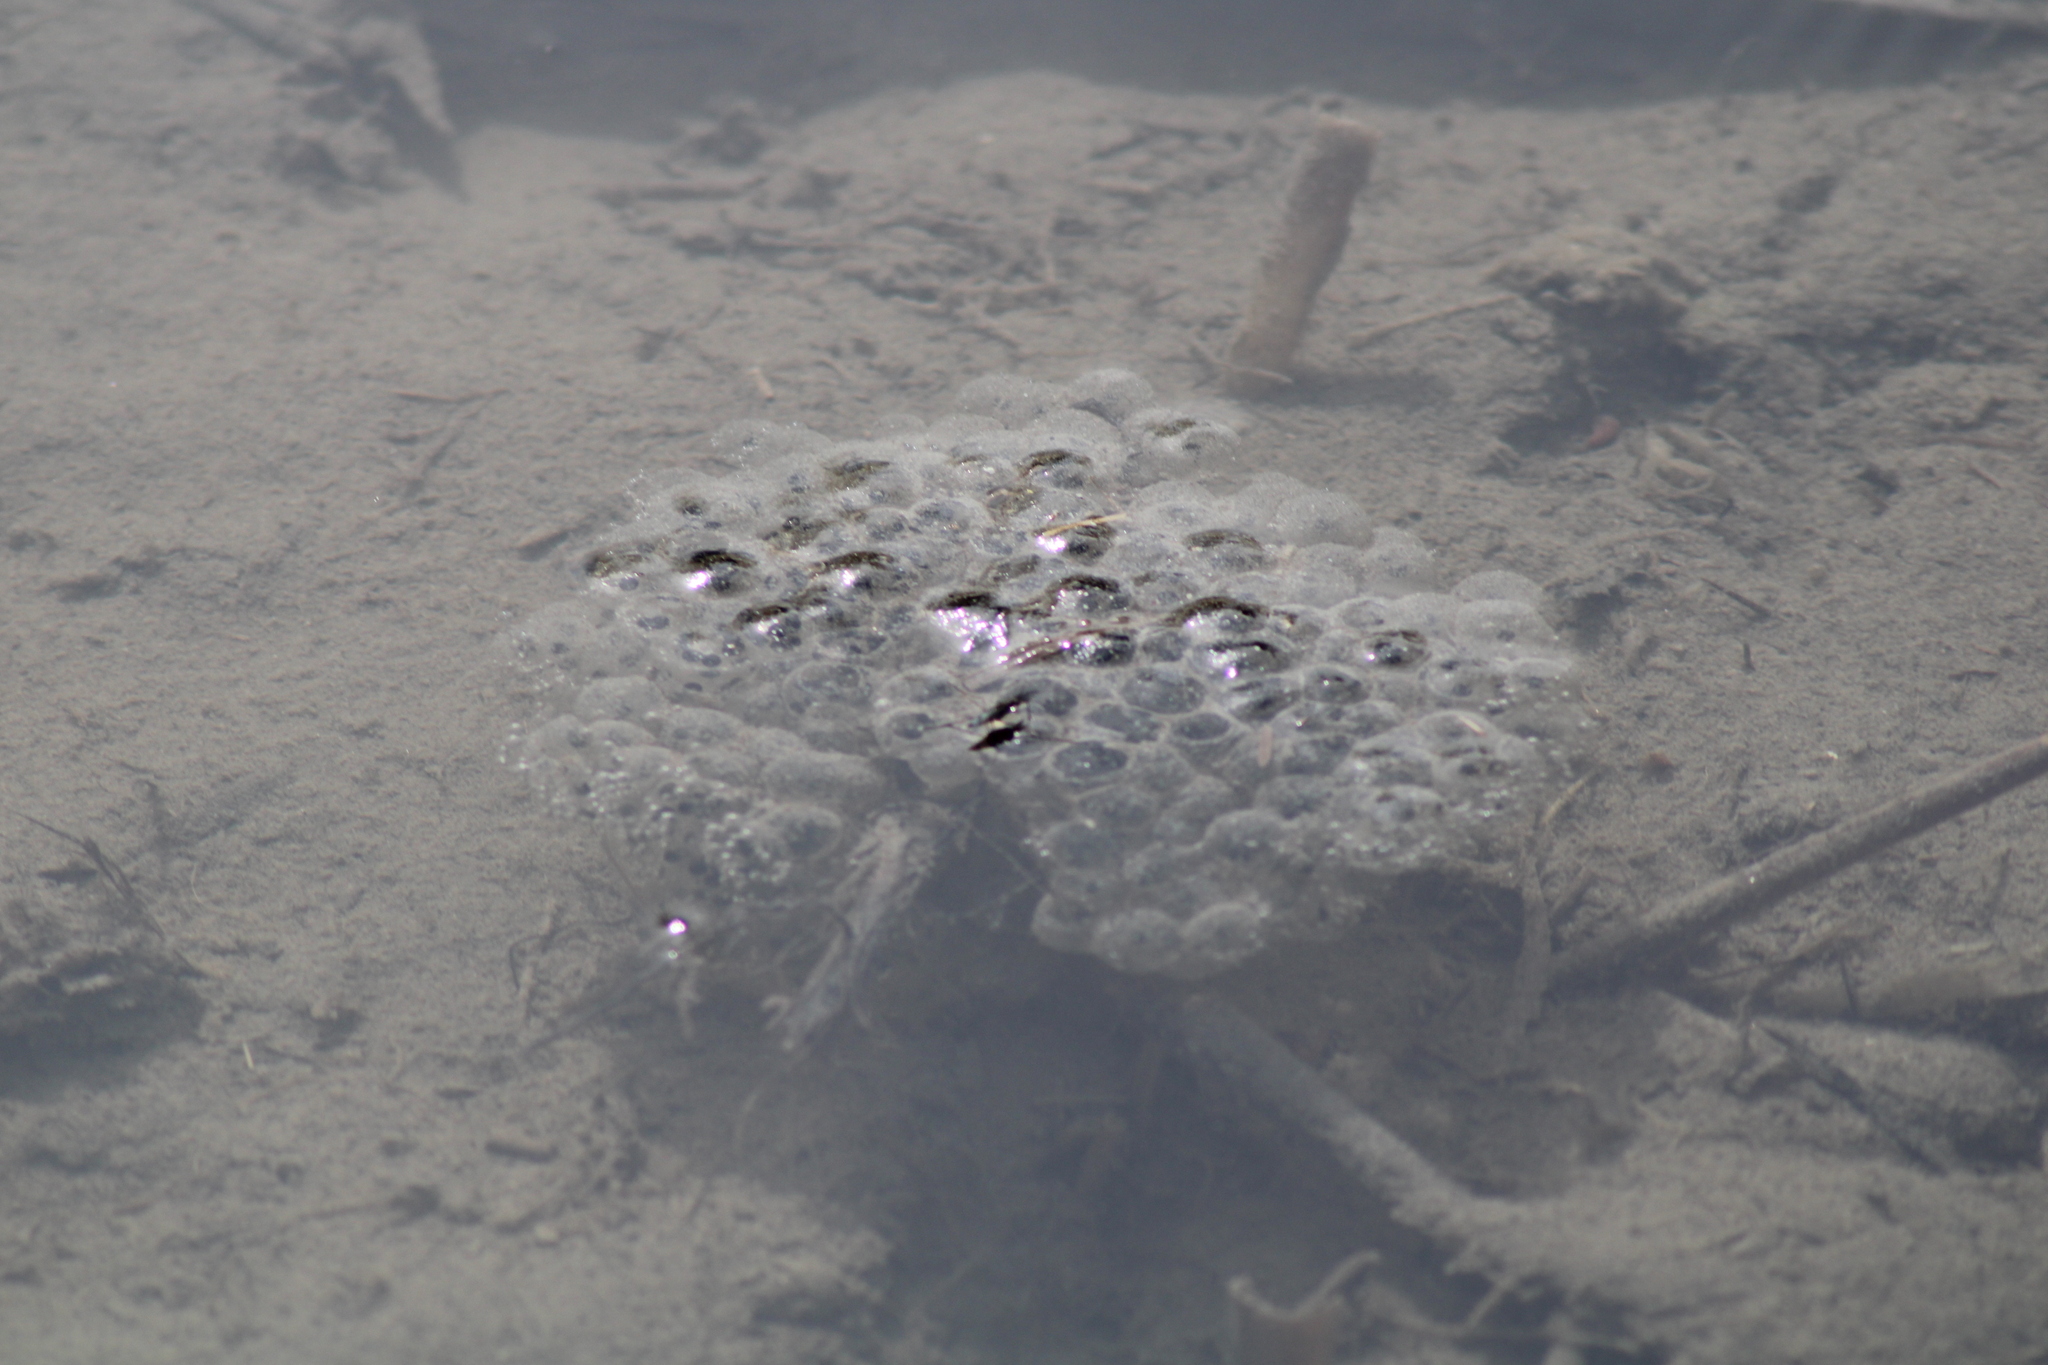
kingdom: Animalia
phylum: Chordata
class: Amphibia
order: Anura
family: Ranidae
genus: Rana
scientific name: Rana dalmatina
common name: Agile frog
